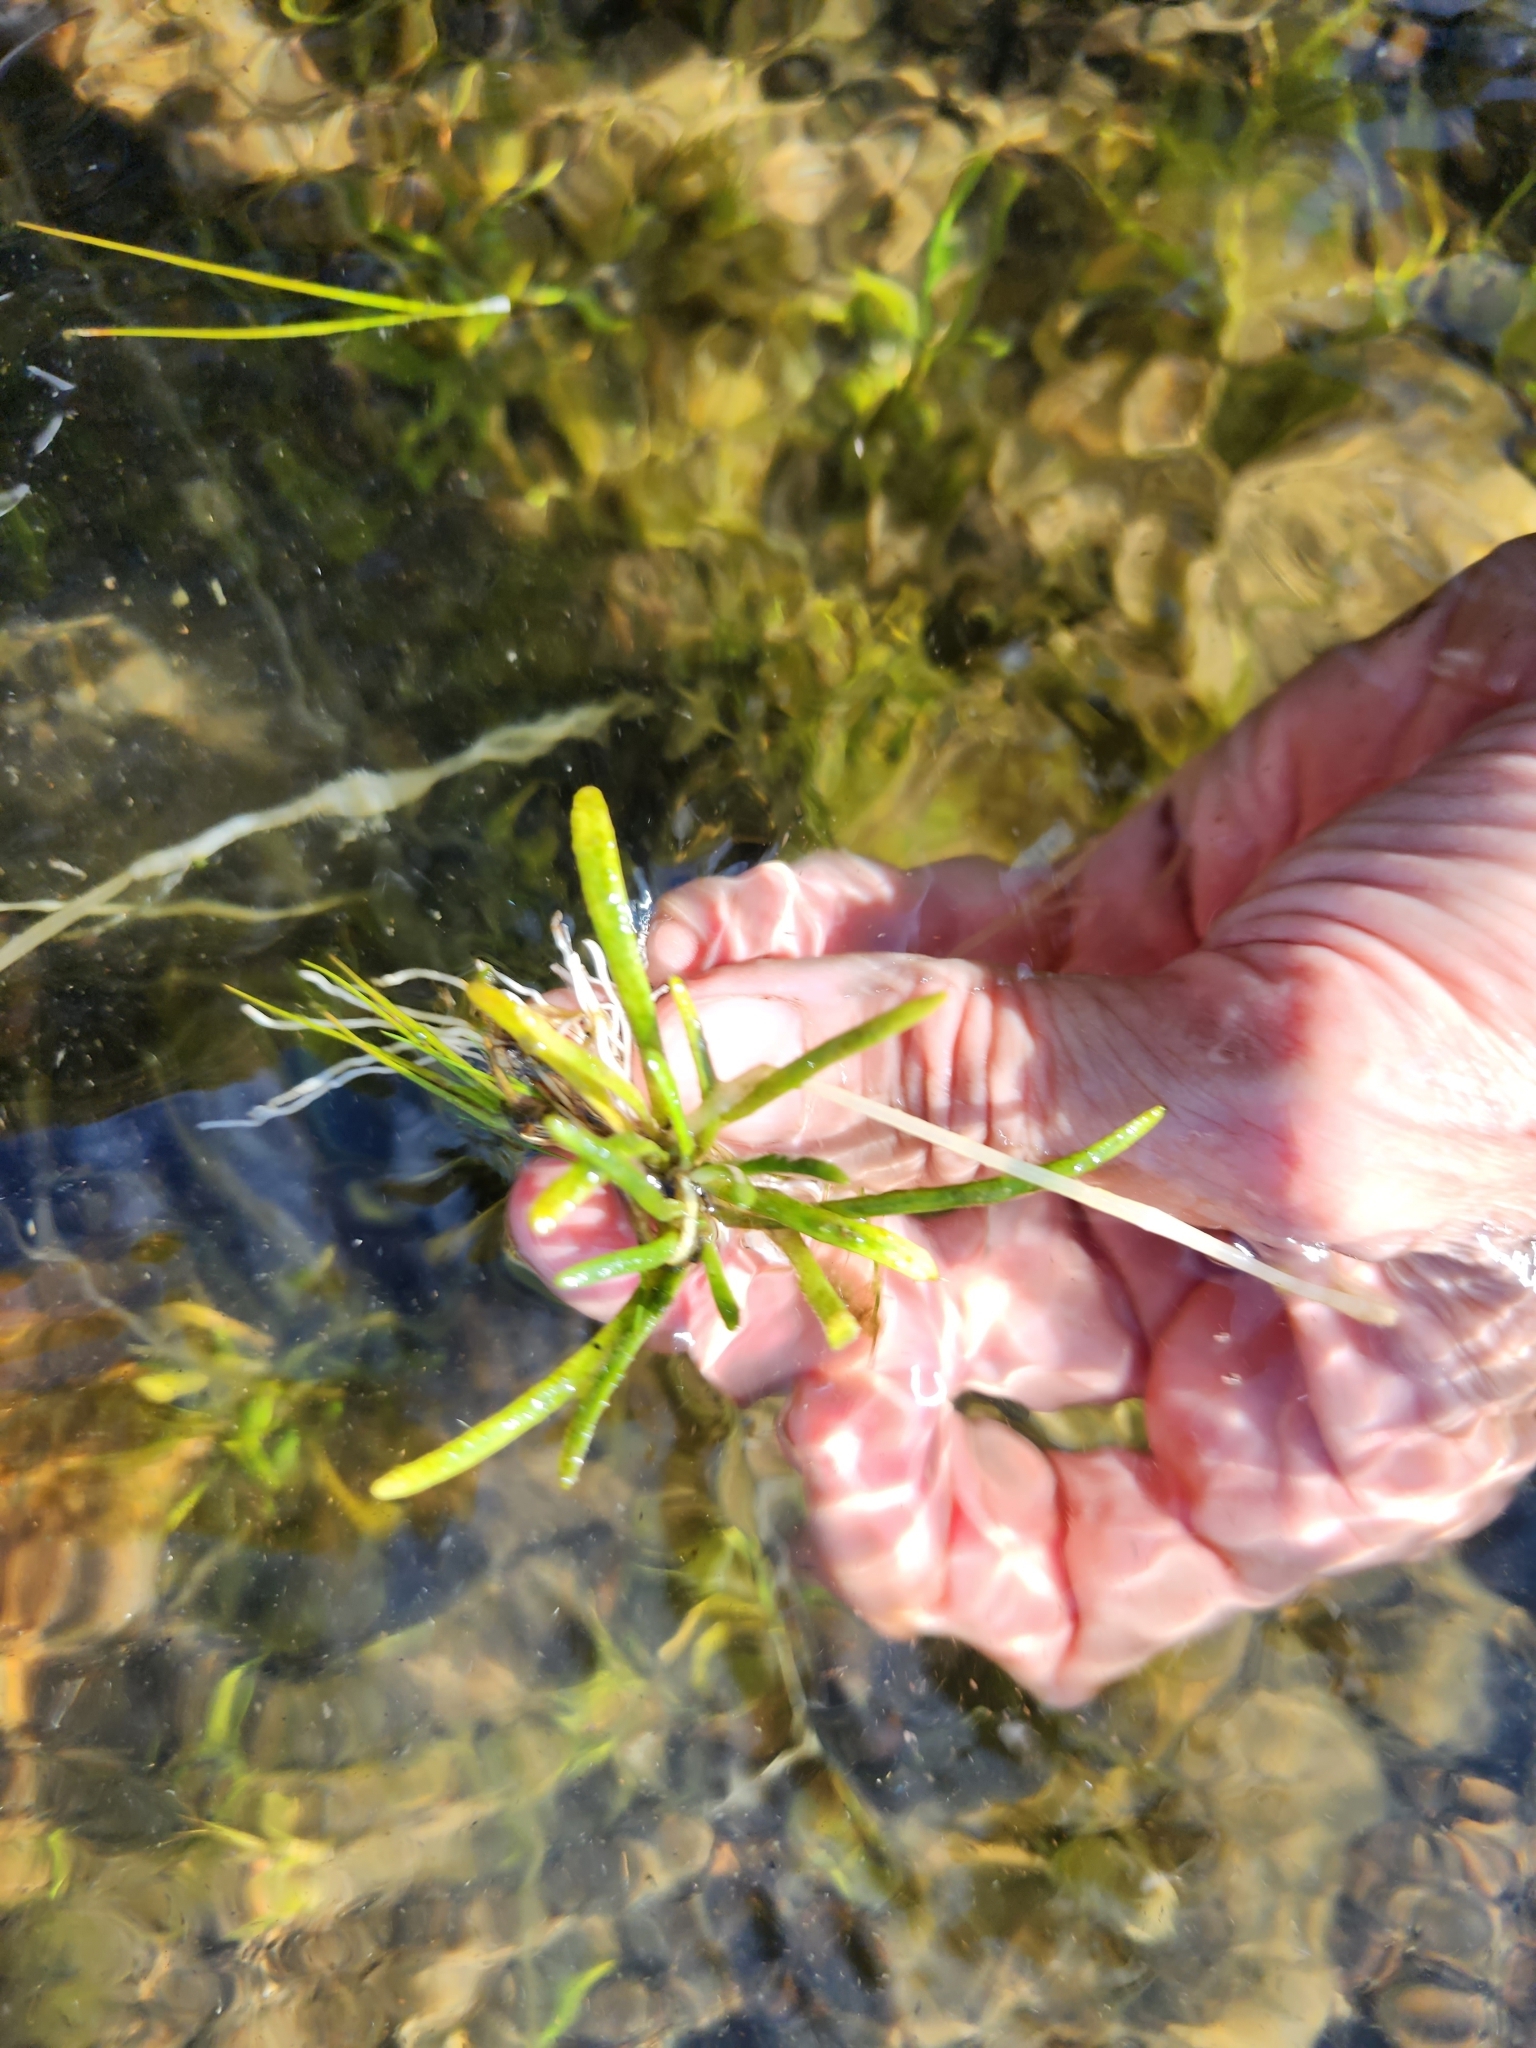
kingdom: Plantae
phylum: Tracheophyta
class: Magnoliopsida
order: Asterales
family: Campanulaceae
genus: Lobelia
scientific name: Lobelia dortmanna
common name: Water lobelia
